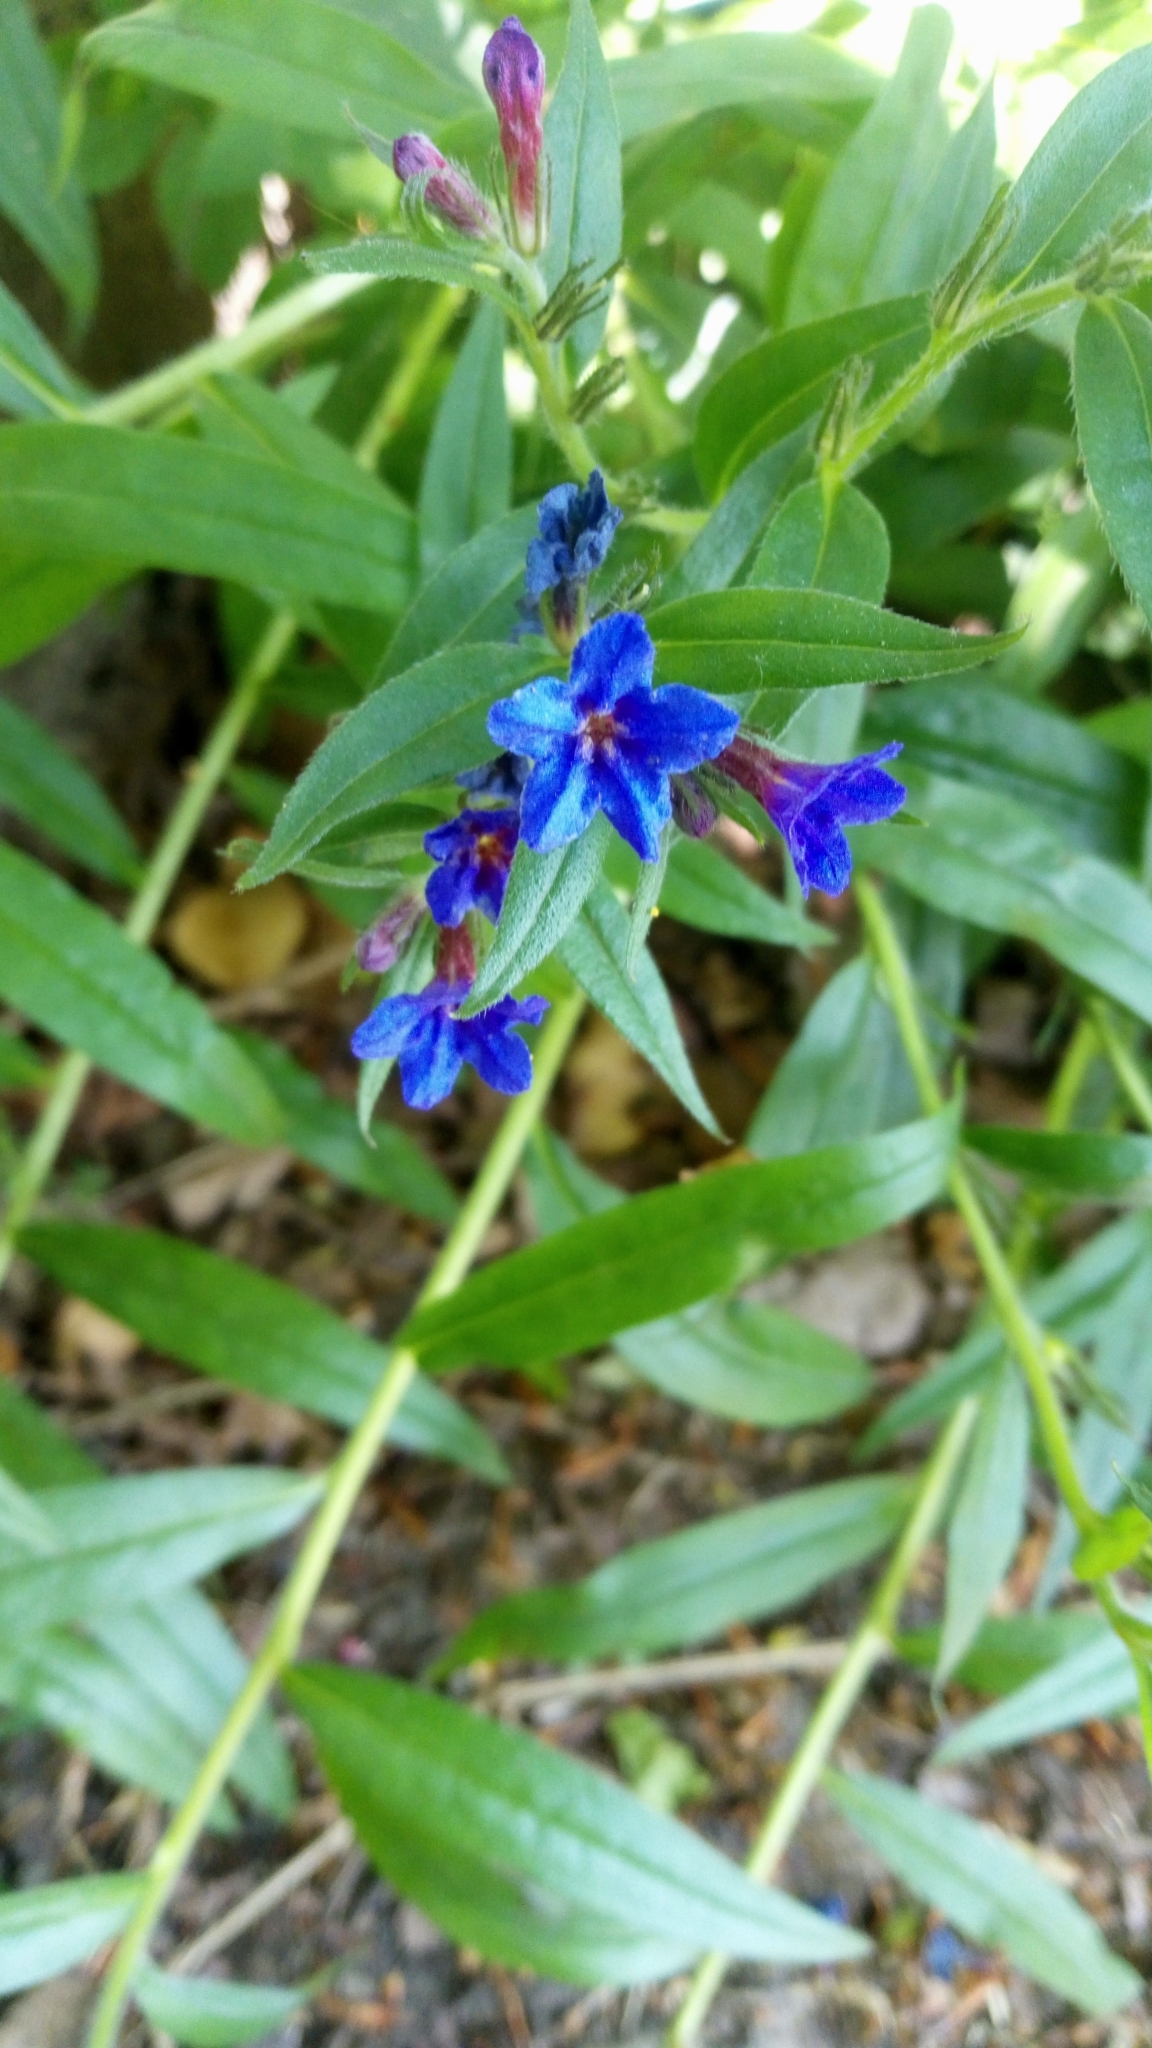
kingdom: Plantae
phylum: Tracheophyta
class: Magnoliopsida
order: Boraginales
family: Boraginaceae
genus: Aegonychon
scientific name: Aegonychon purpurocaeruleum
